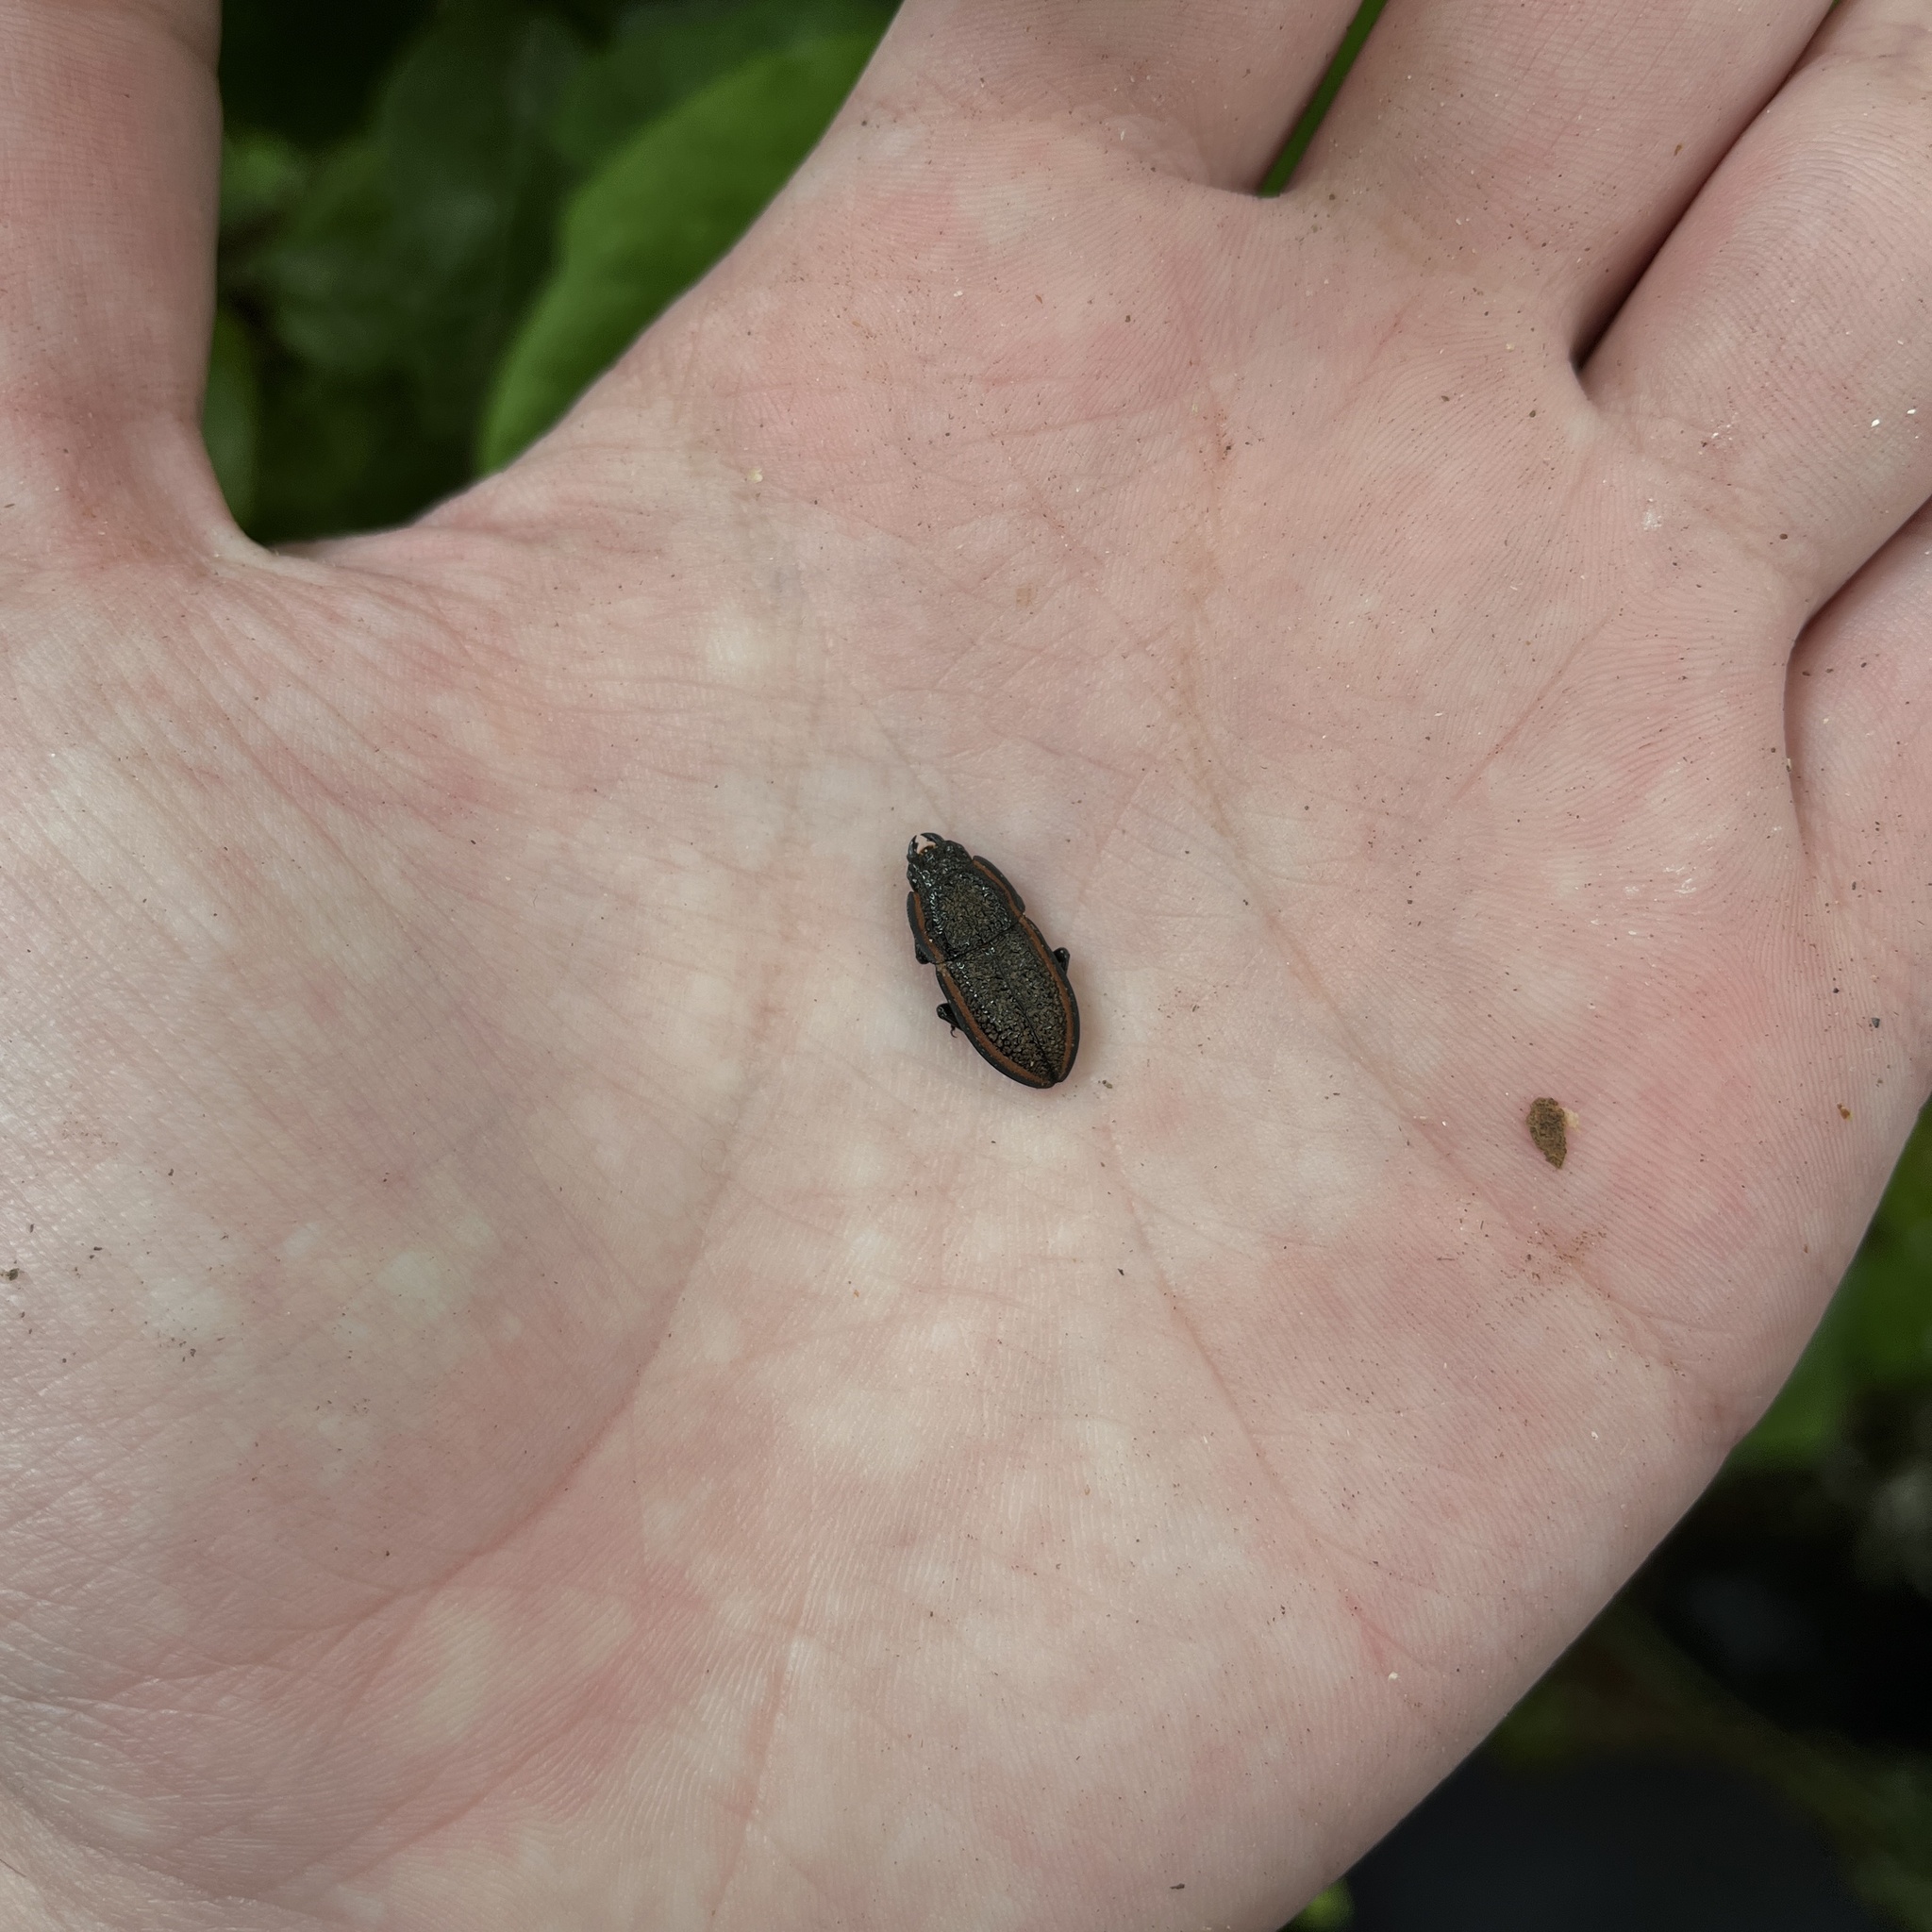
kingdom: Animalia
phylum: Arthropoda
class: Insecta
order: Coleoptera
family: Lucanidae
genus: Erichius
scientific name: Erichius caelatus
